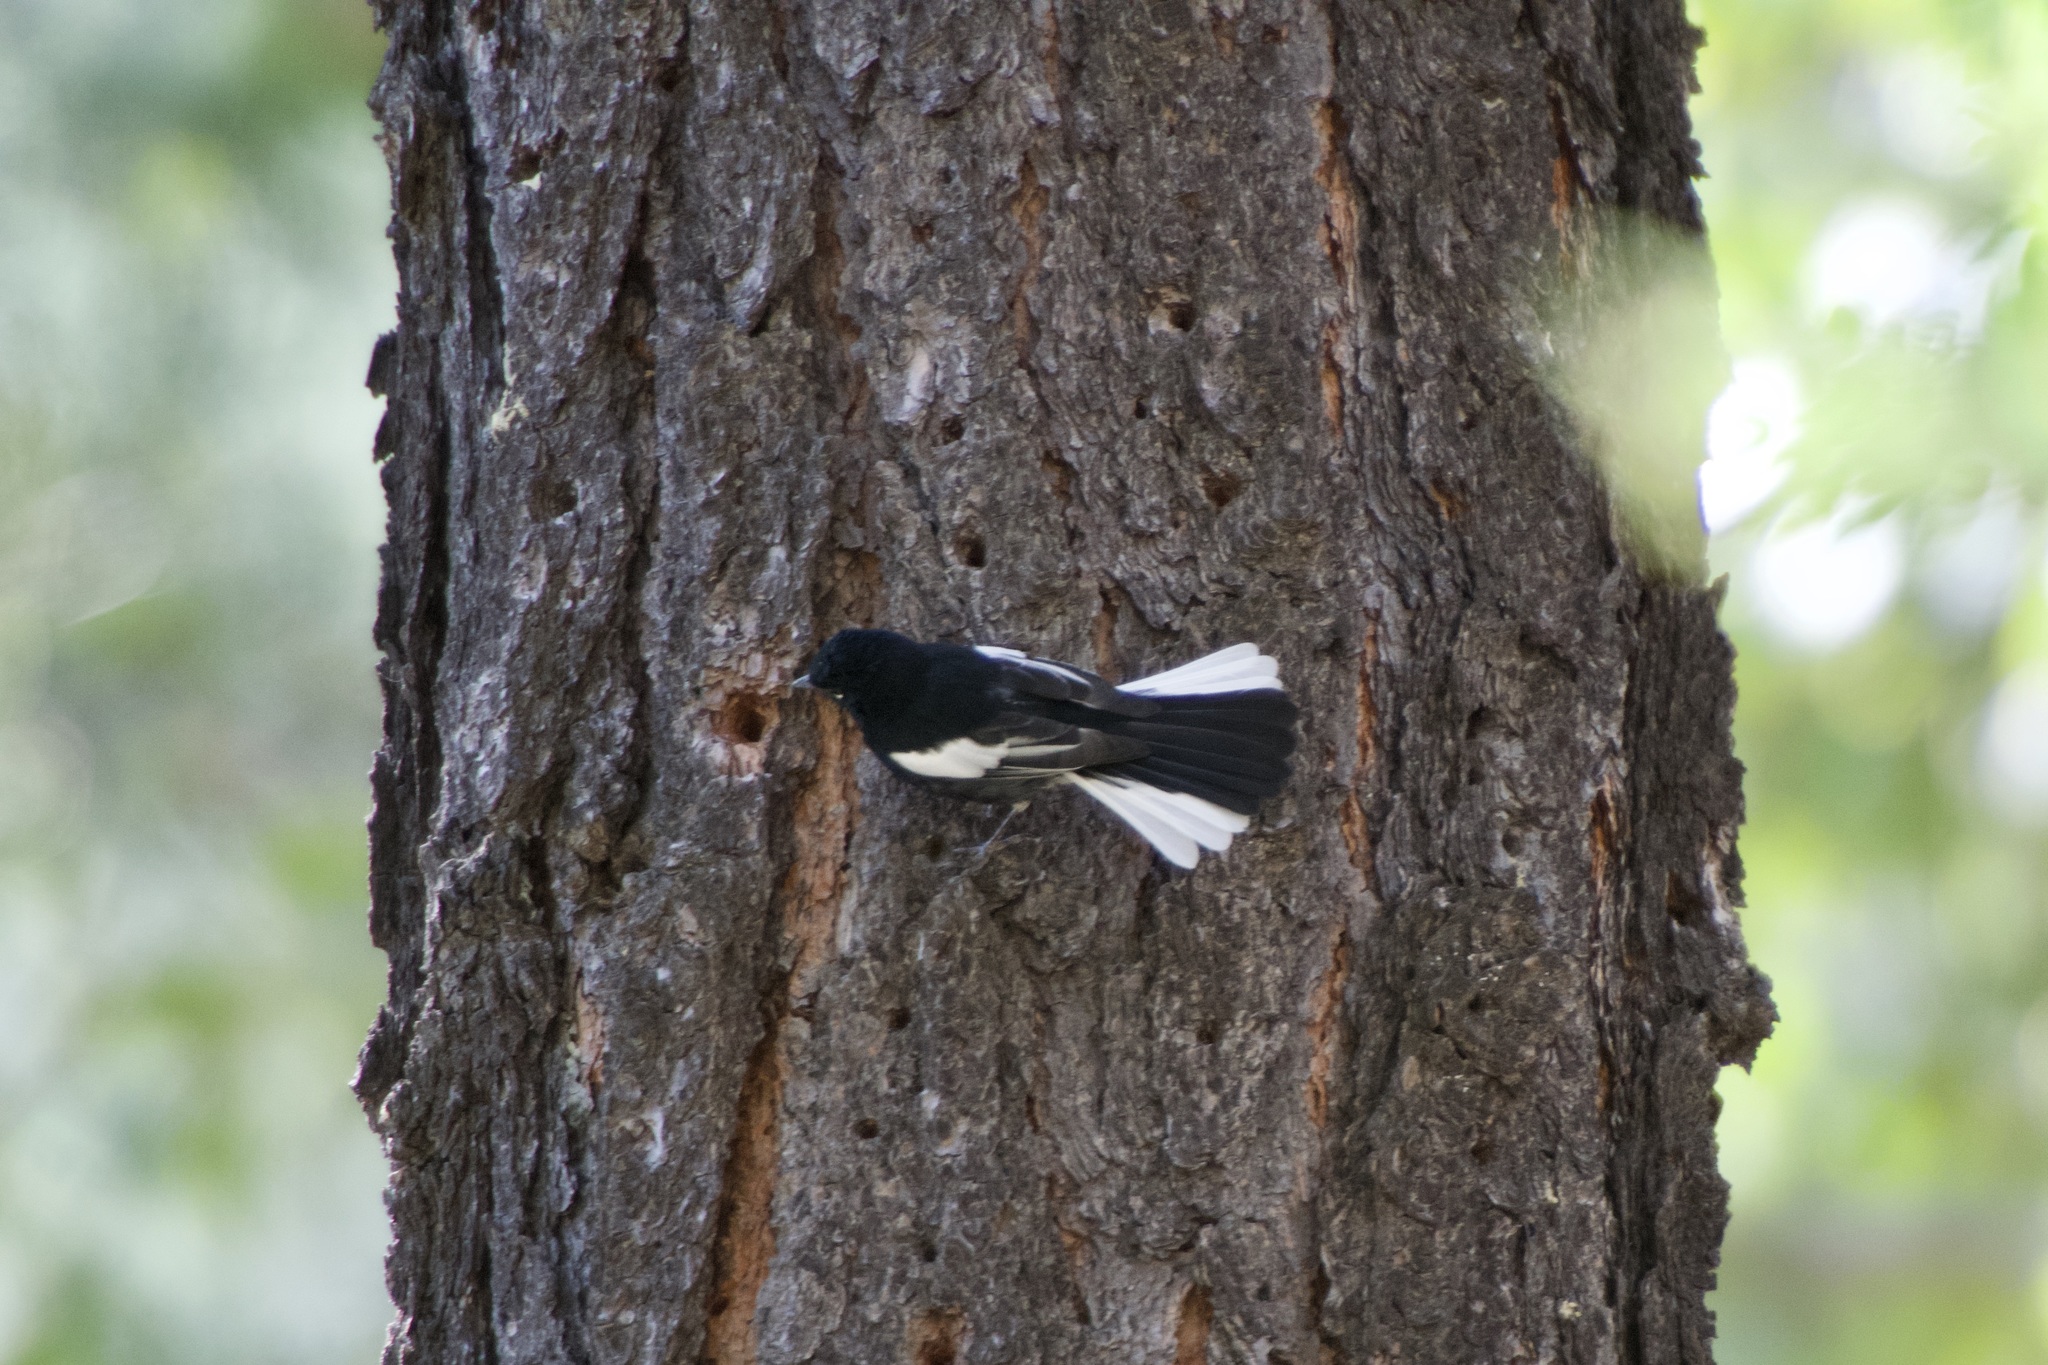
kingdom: Animalia
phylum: Chordata
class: Aves
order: Passeriformes
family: Parulidae
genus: Myioborus
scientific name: Myioborus pictus
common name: Painted whitestart
